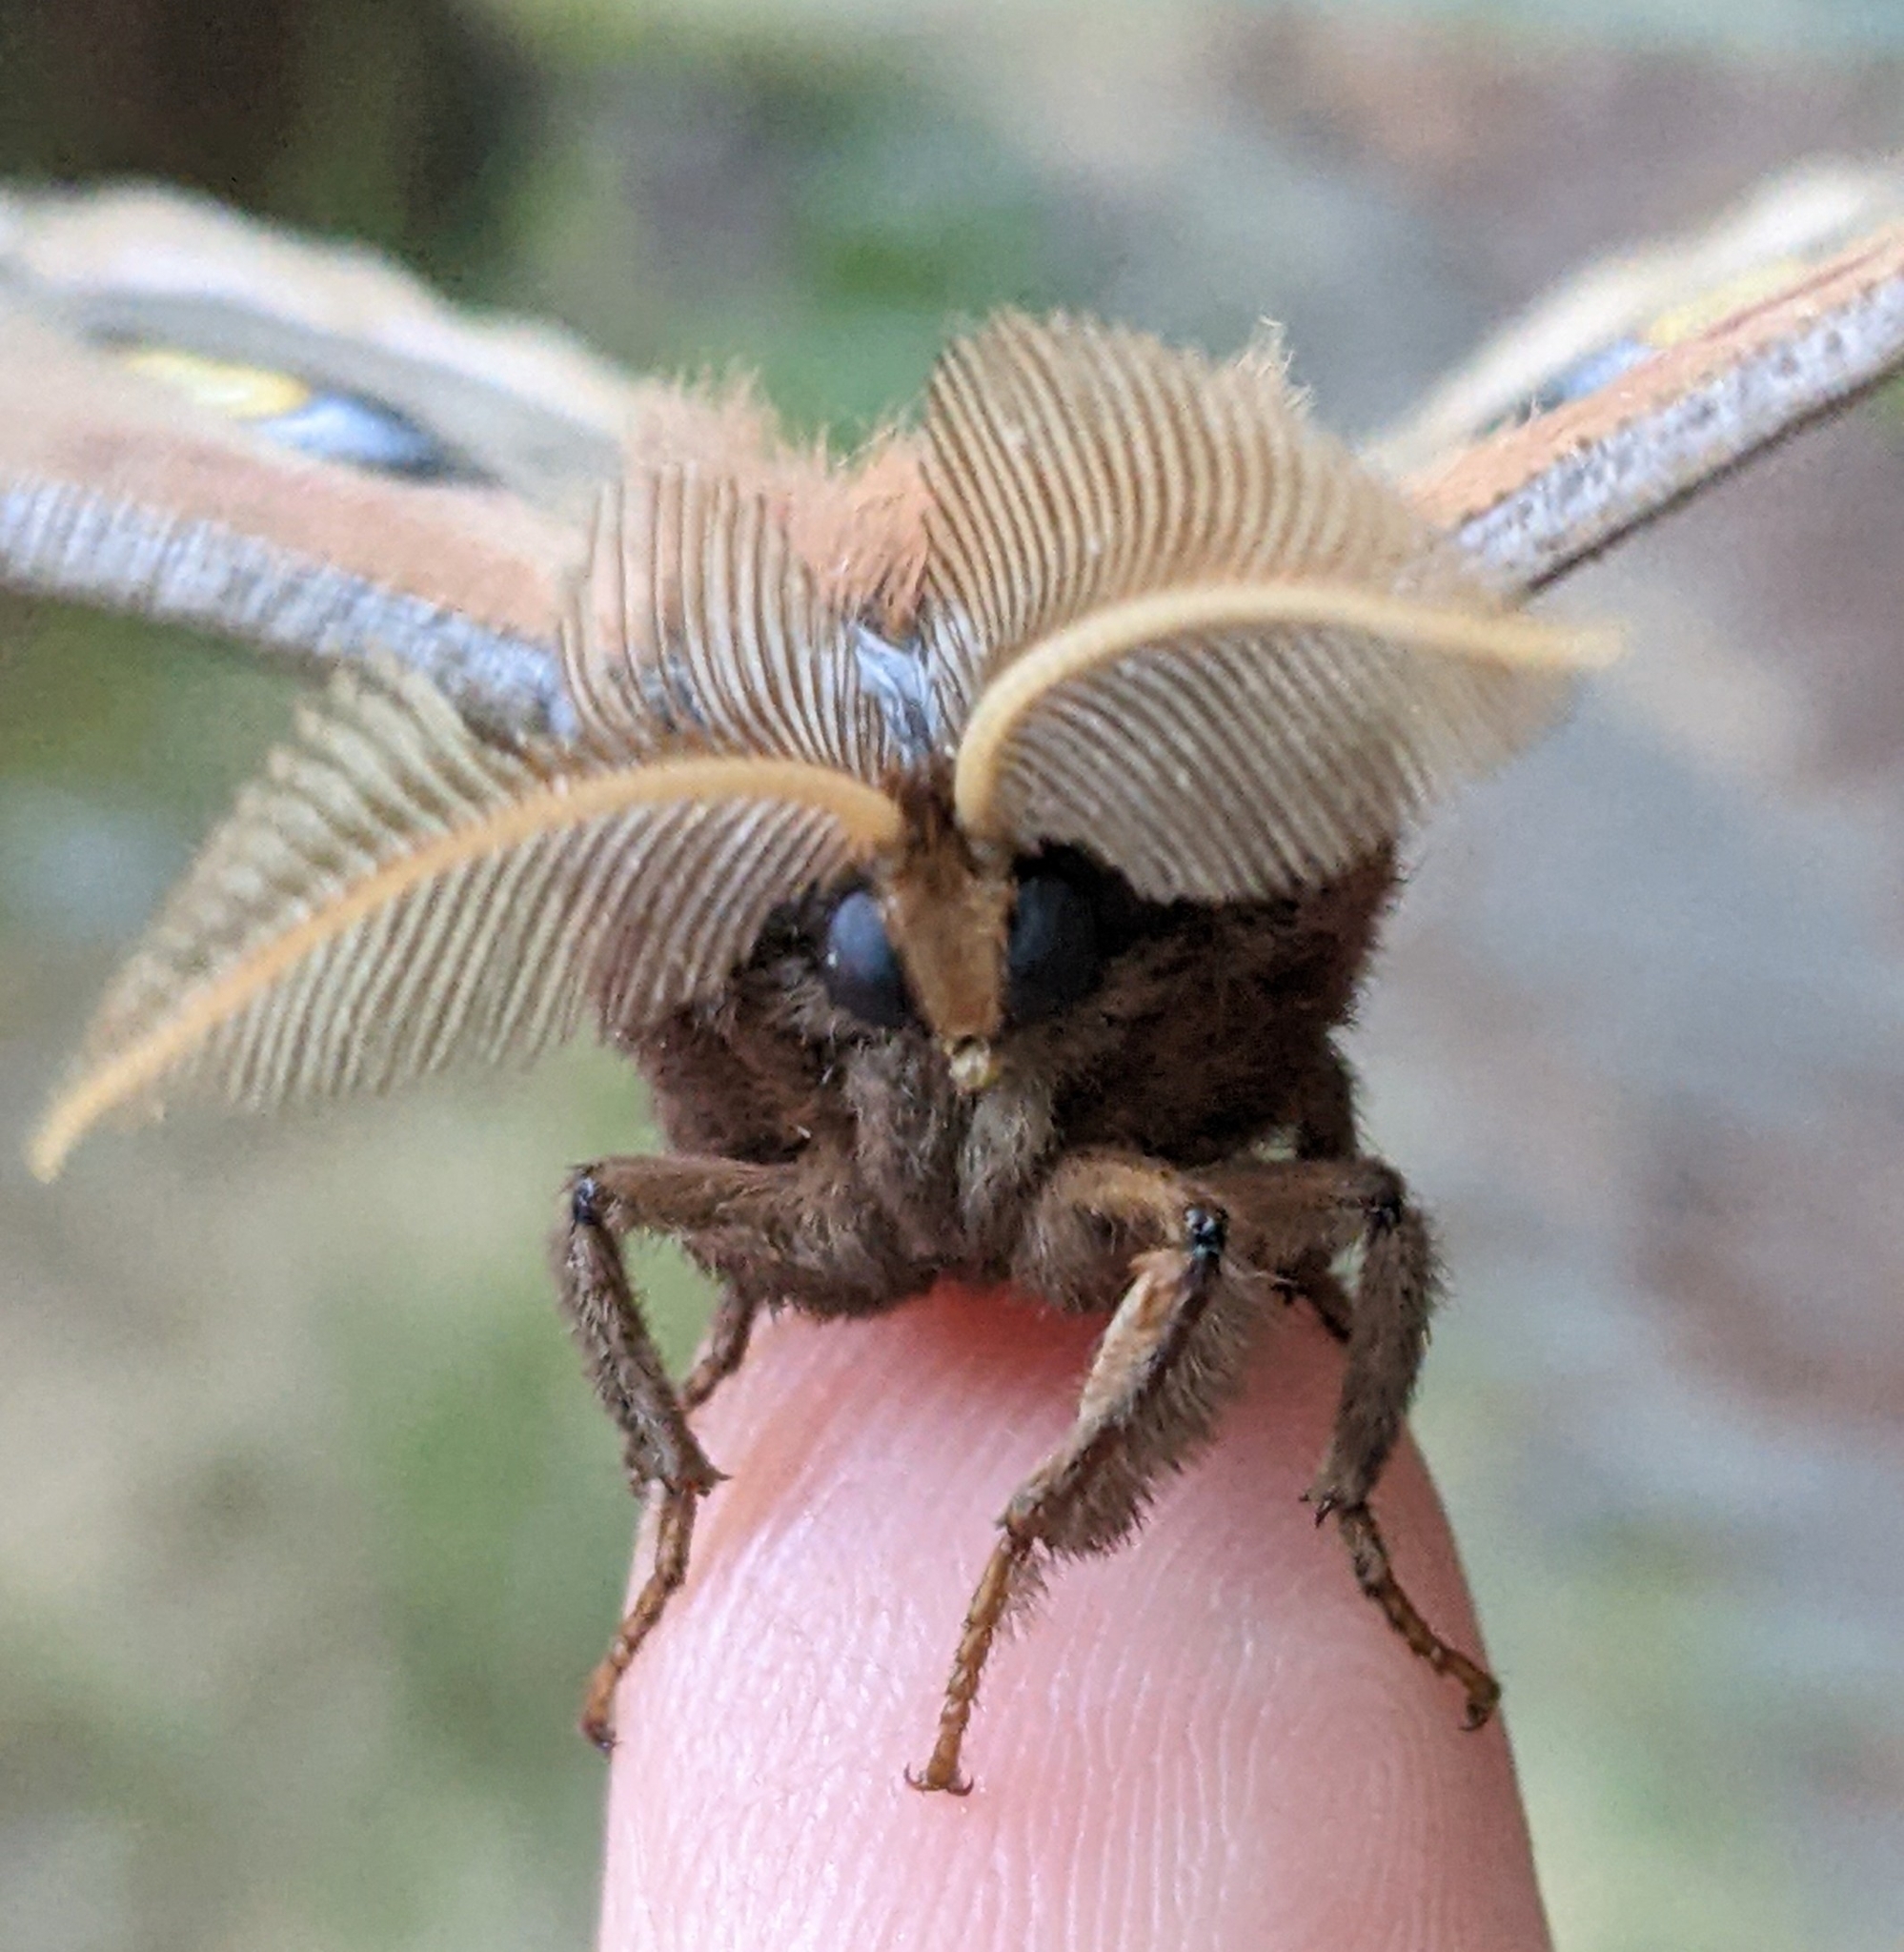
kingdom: Animalia
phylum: Arthropoda
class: Insecta
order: Lepidoptera
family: Saturniidae
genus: Antheraea
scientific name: Antheraea polyphemus
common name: Polyphemus moth
